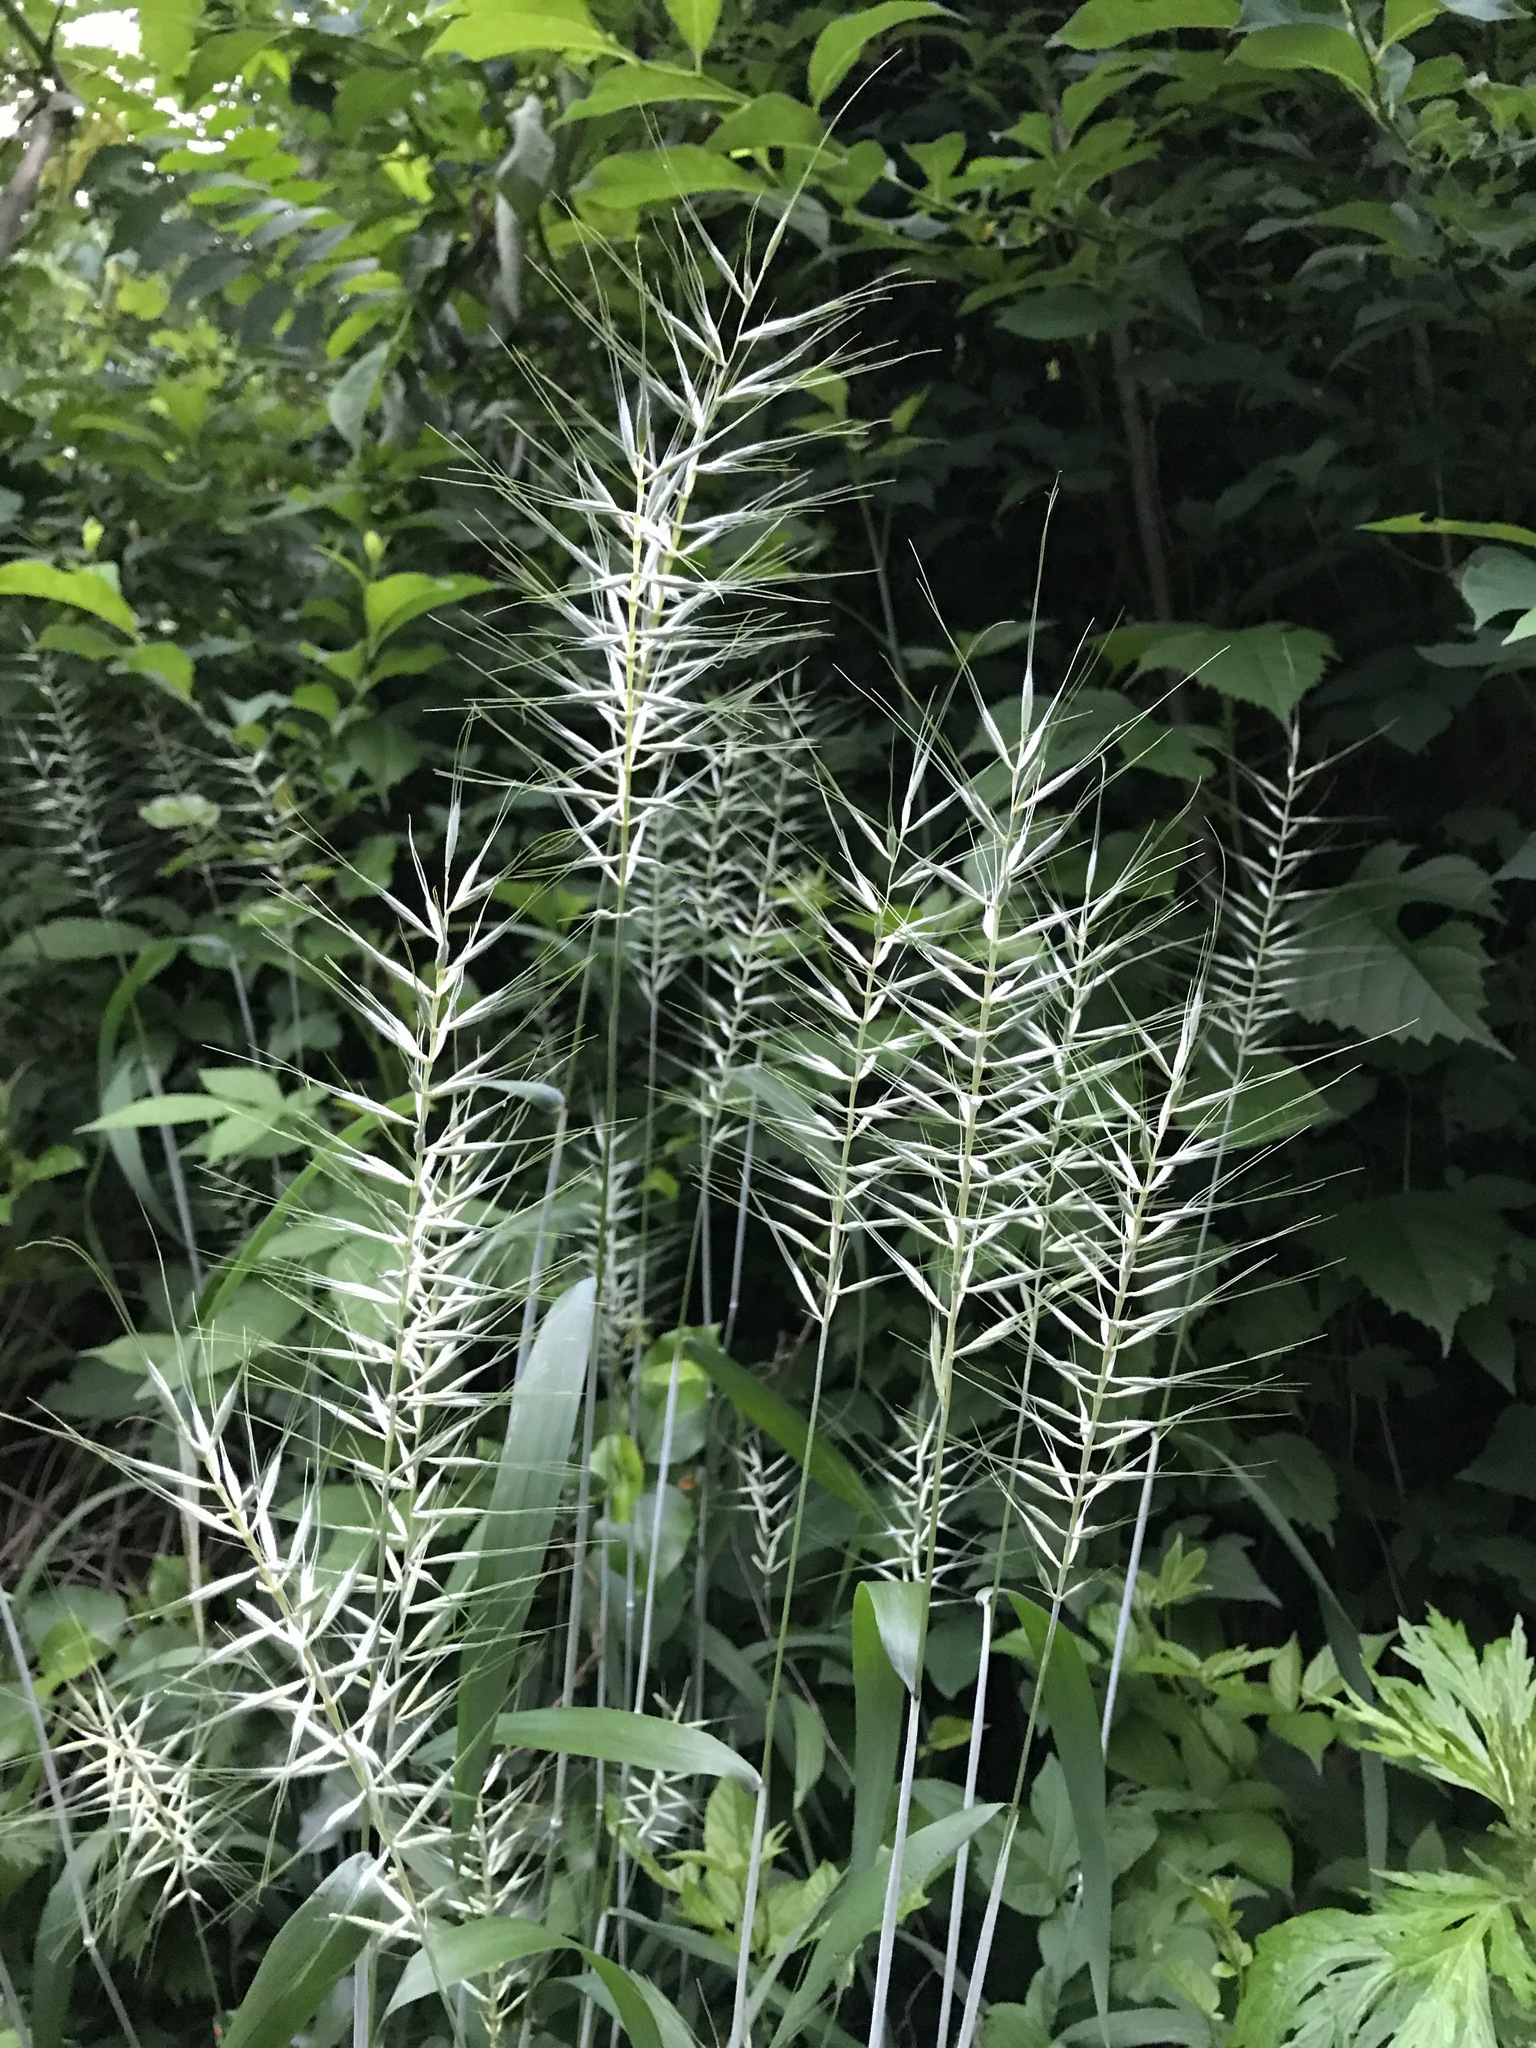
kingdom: Plantae
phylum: Tracheophyta
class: Liliopsida
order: Poales
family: Poaceae
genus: Elymus
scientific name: Elymus hystrix
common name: Bottlebrush grass
